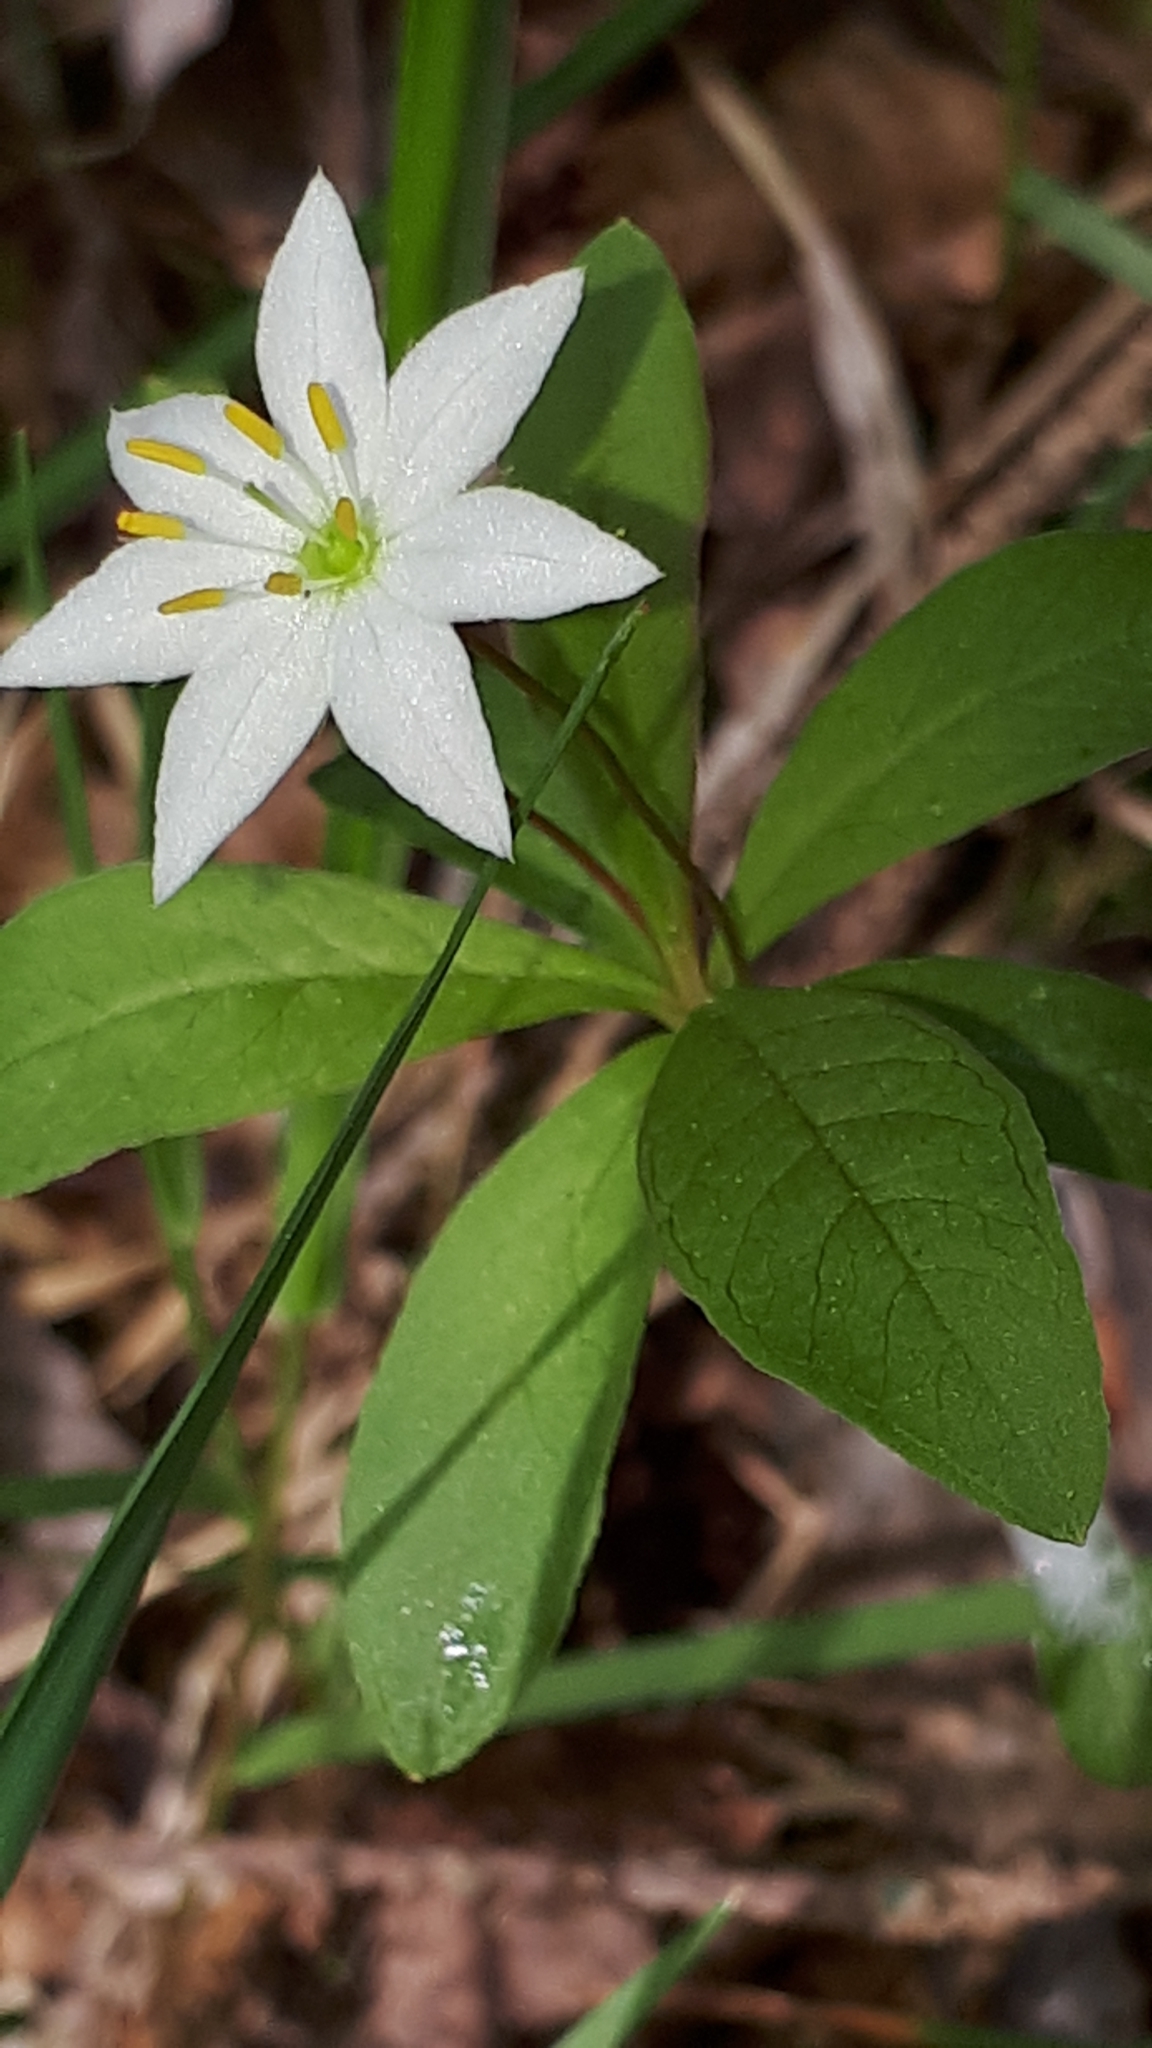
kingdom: Plantae
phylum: Tracheophyta
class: Magnoliopsida
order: Ericales
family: Primulaceae
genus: Lysimachia
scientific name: Lysimachia europaea
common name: Arctic starflower
